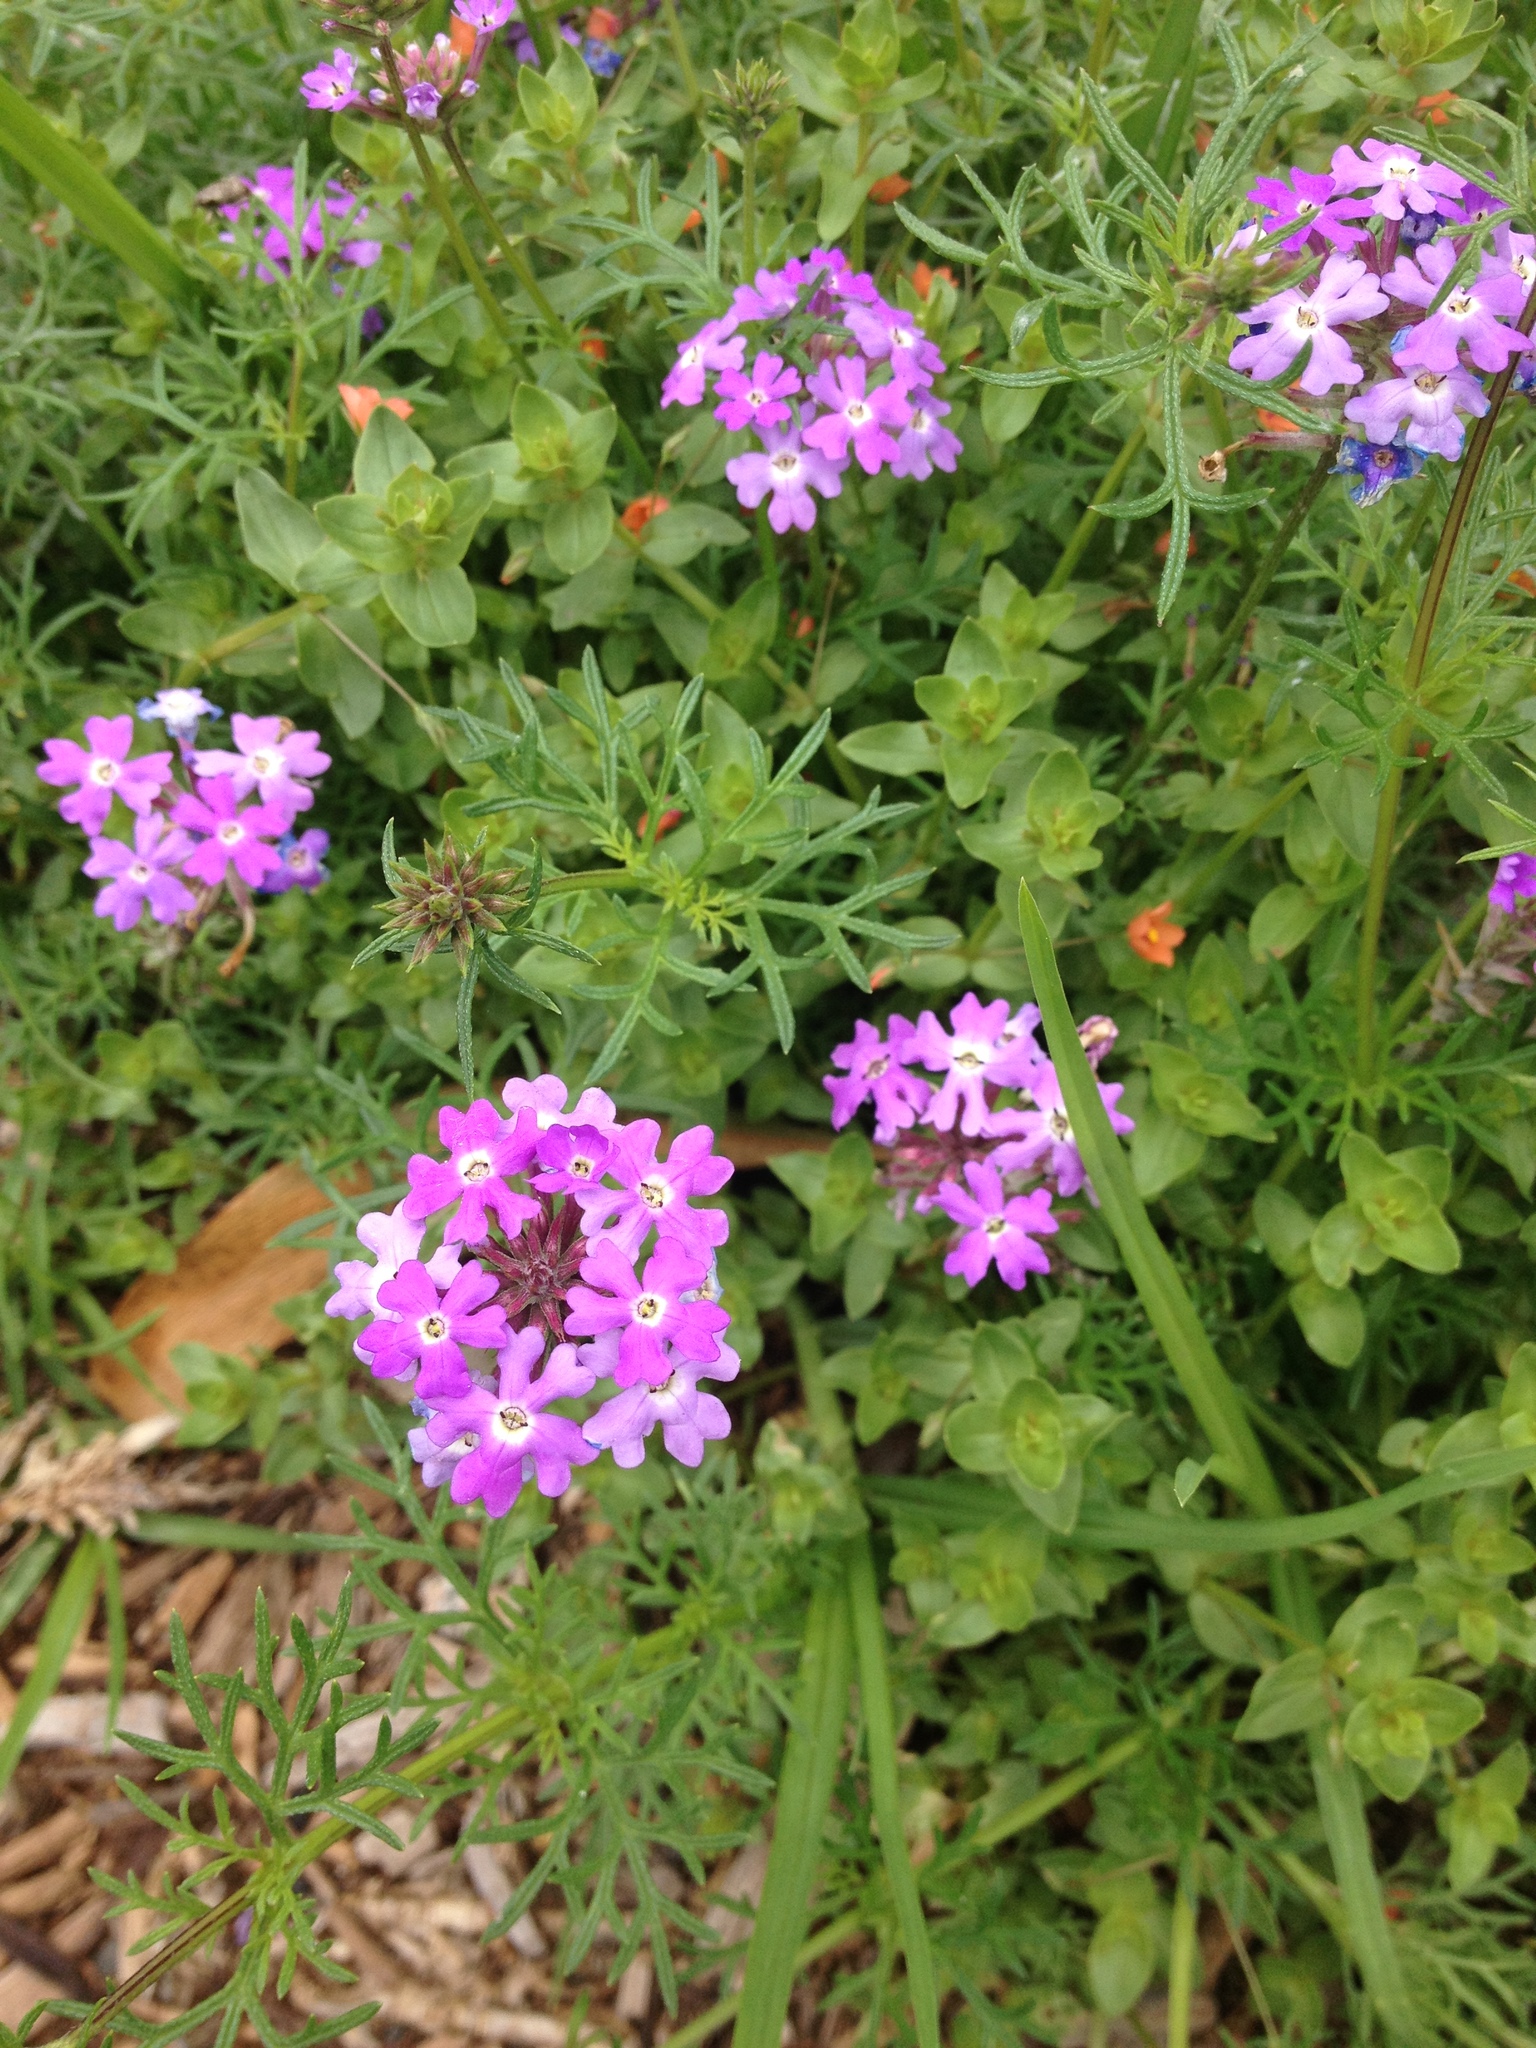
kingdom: Plantae
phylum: Tracheophyta
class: Magnoliopsida
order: Lamiales
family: Verbenaceae
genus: Verbena
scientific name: Verbena aristigera
